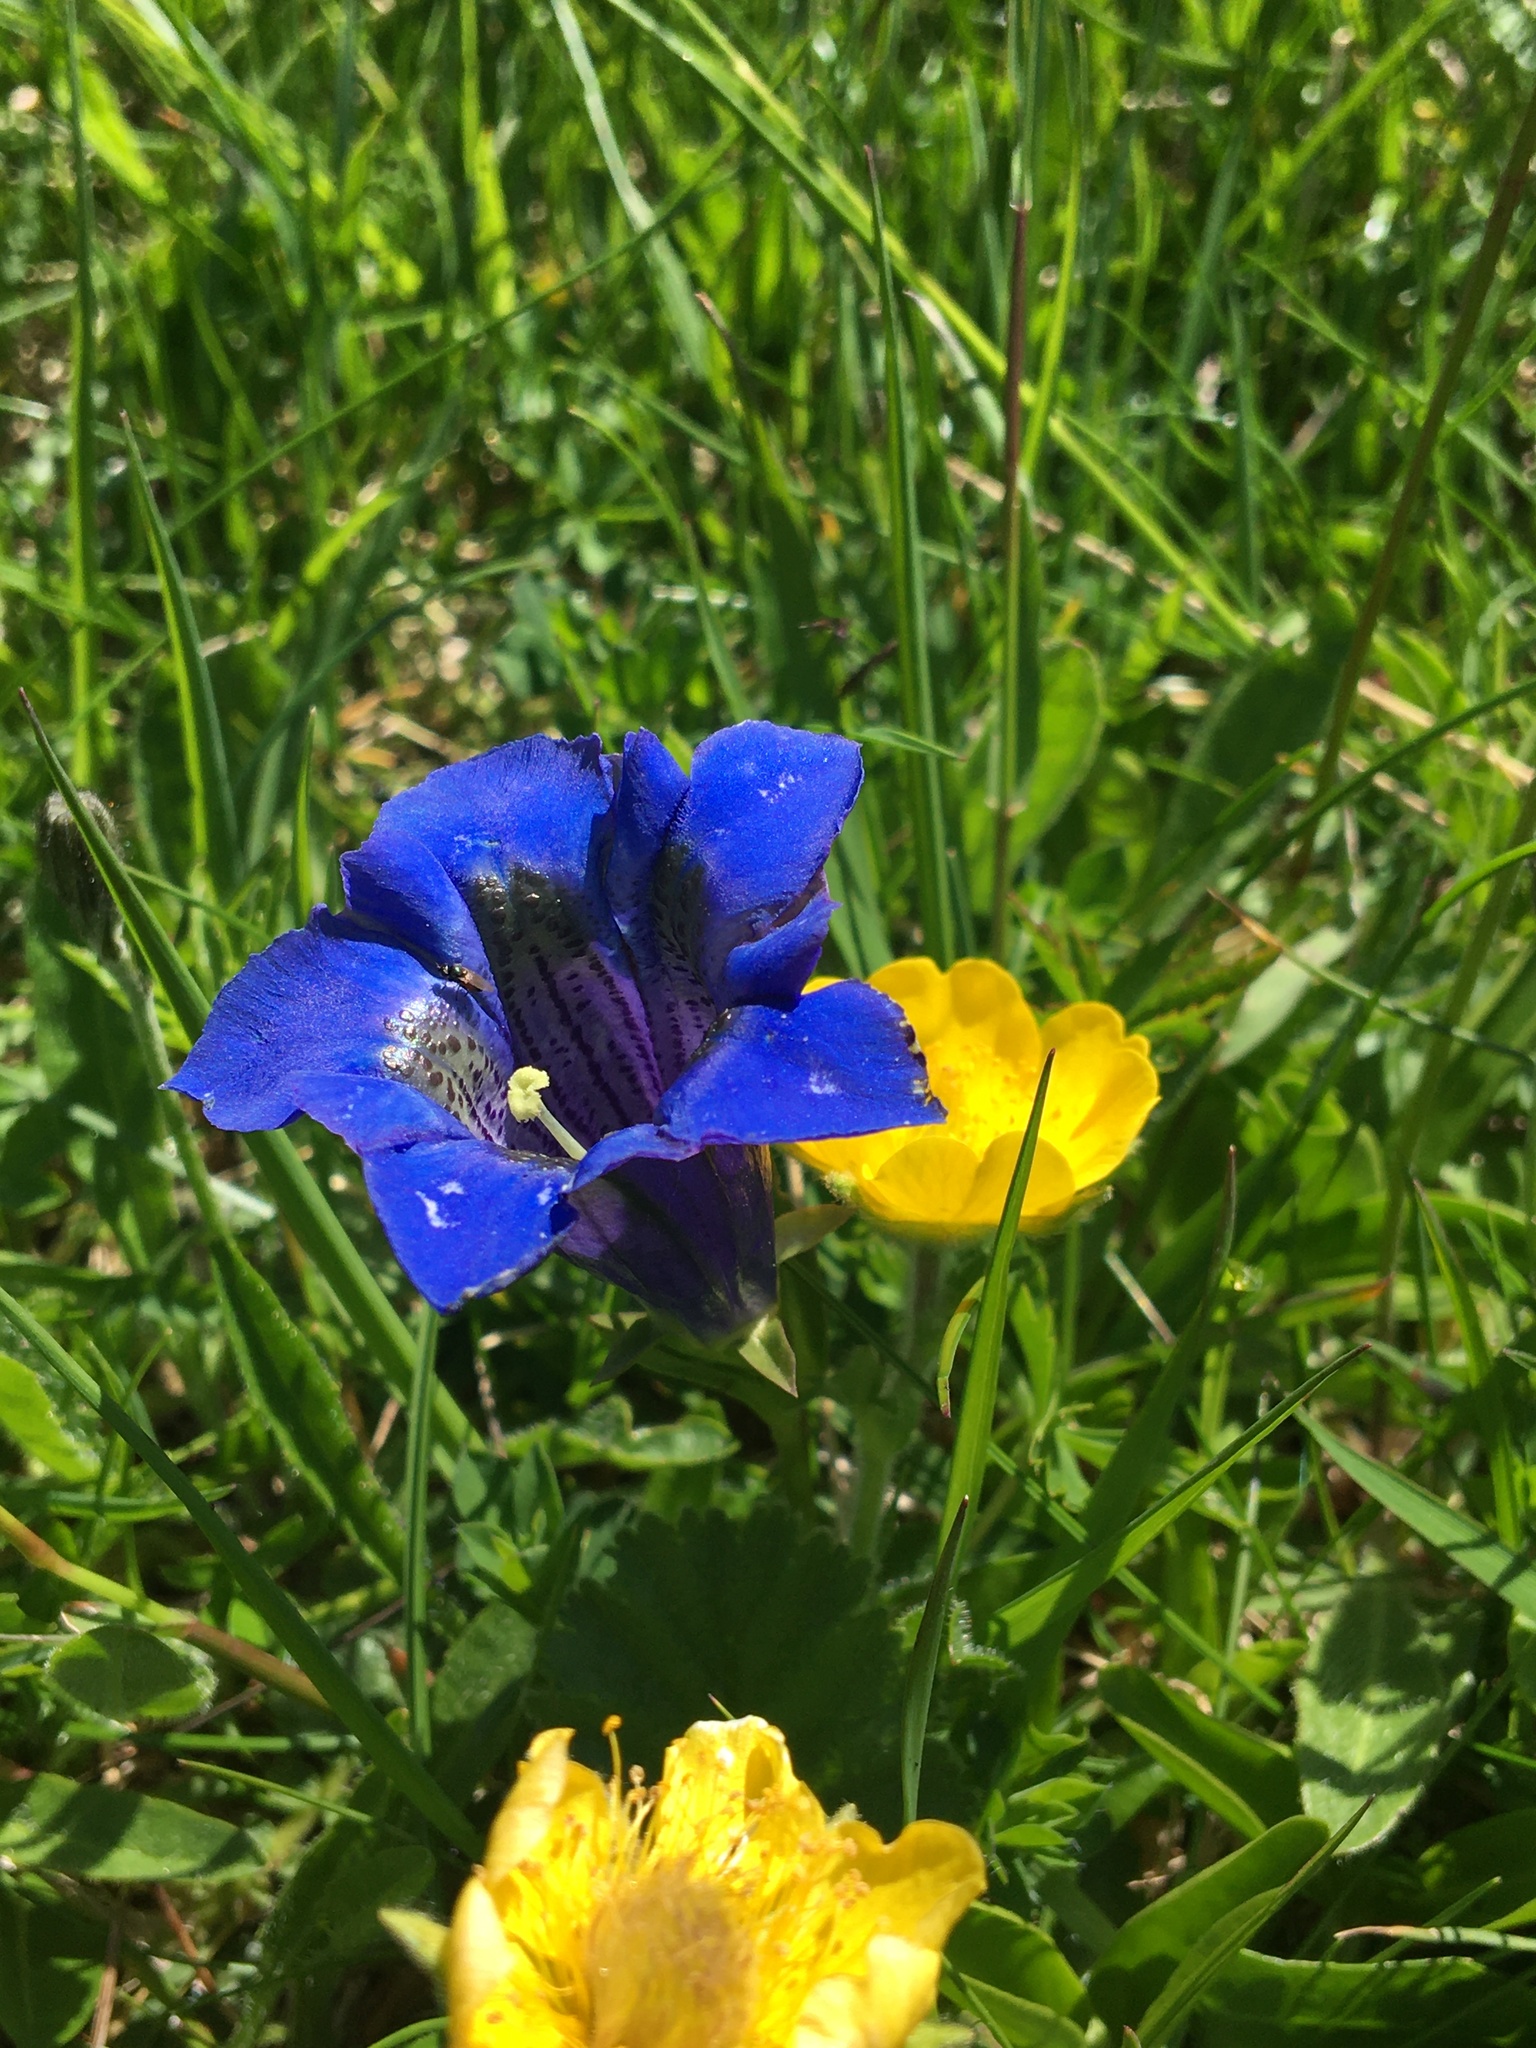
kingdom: Plantae
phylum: Tracheophyta
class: Magnoliopsida
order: Gentianales
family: Gentianaceae
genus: Gentiana
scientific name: Gentiana acaulis
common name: Trumpet gentian
